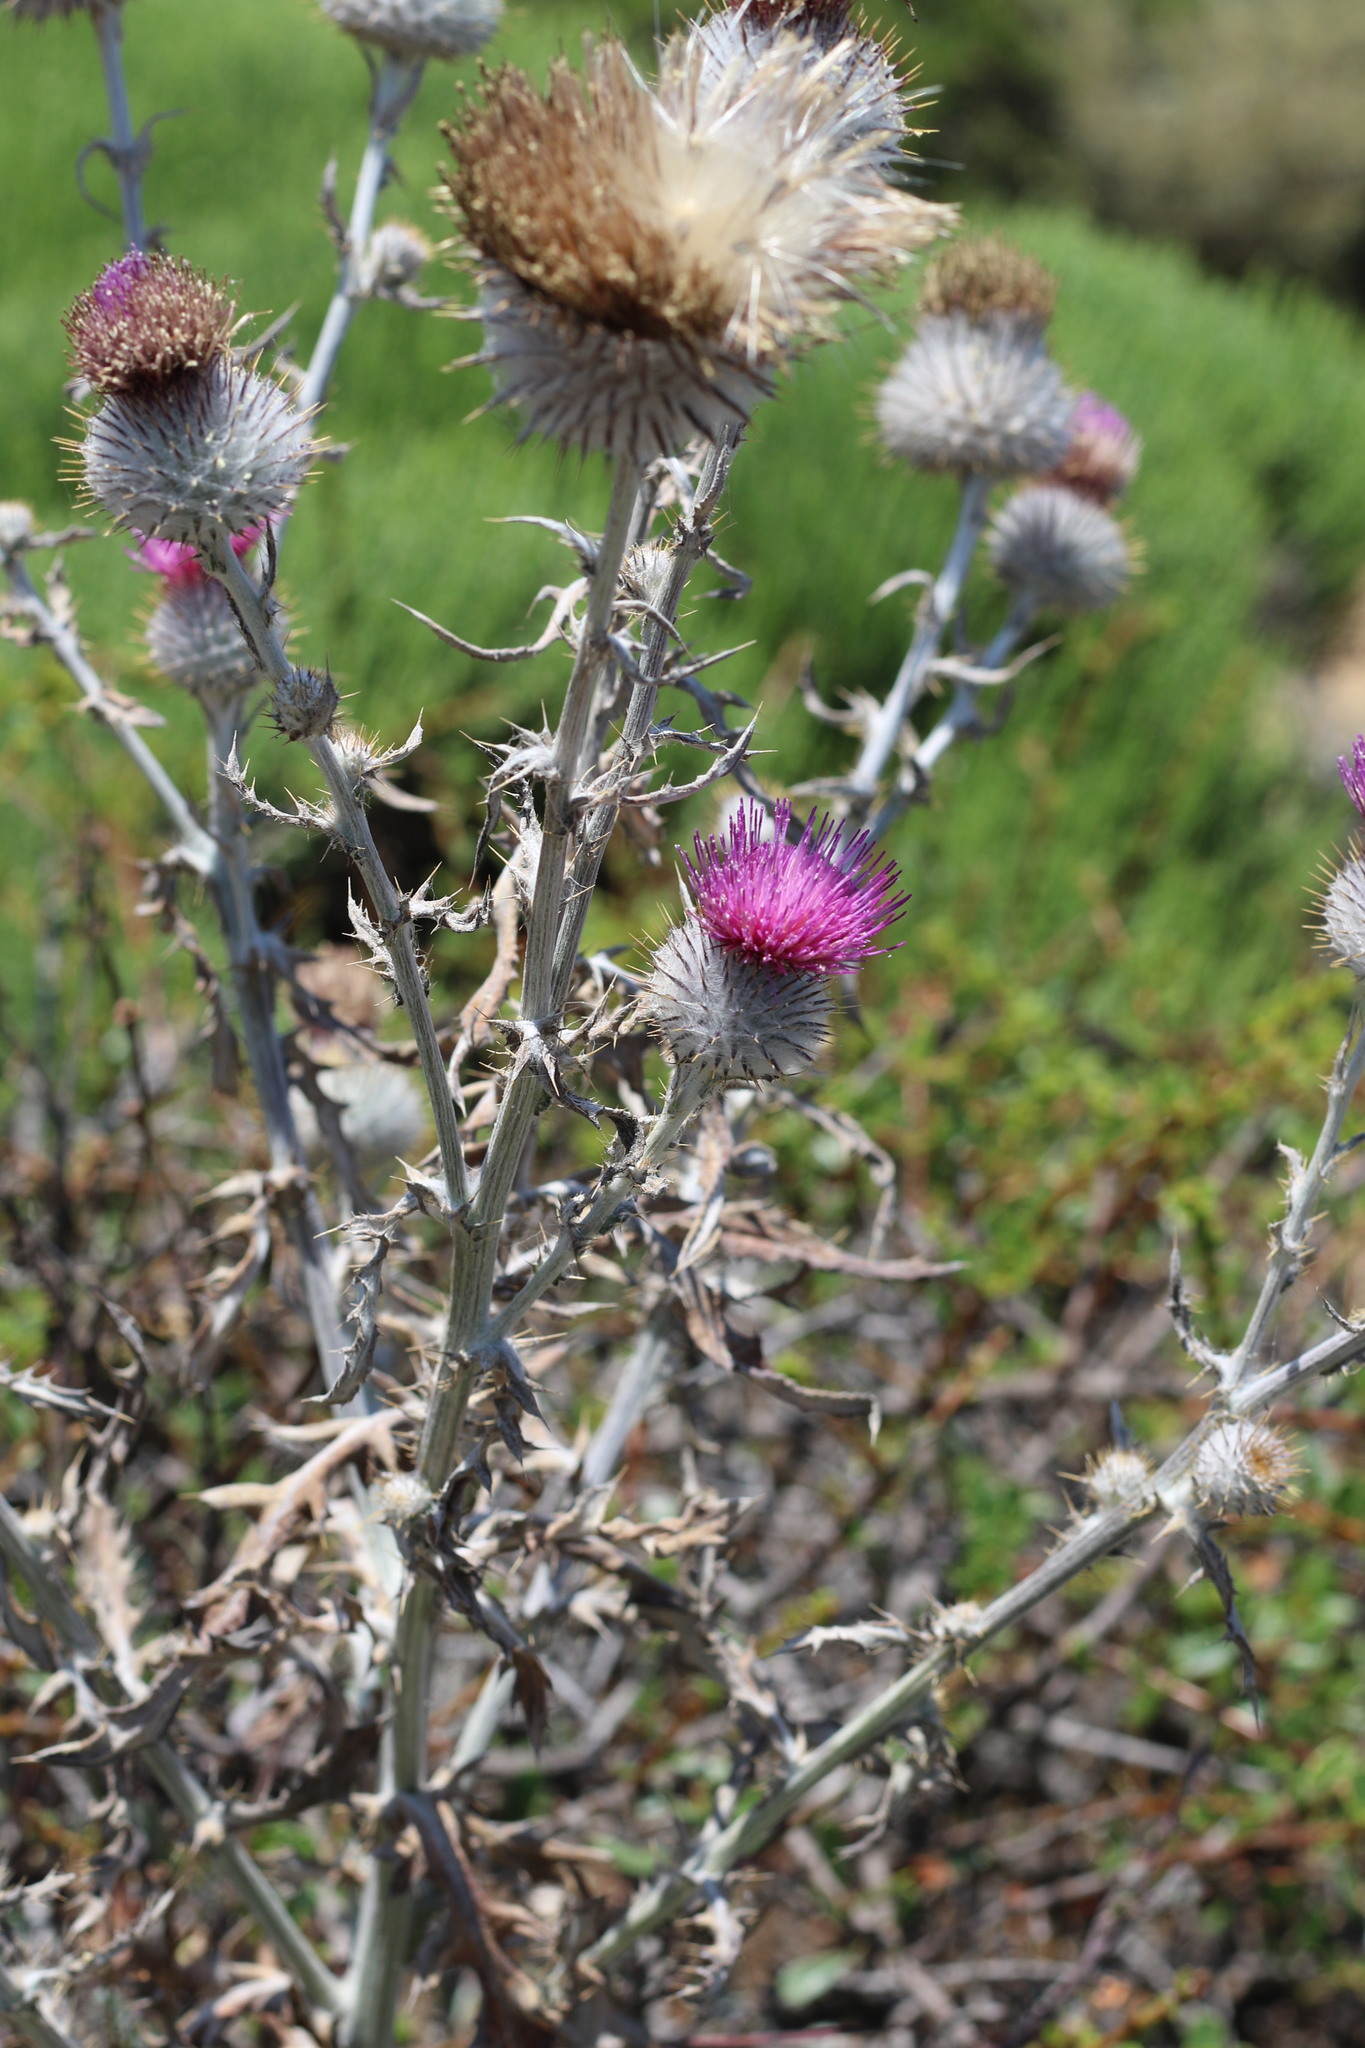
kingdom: Plantae
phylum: Tracheophyta
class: Magnoliopsida
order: Asterales
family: Asteraceae
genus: Cirsium
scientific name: Cirsium occidentale
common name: Western thistle
